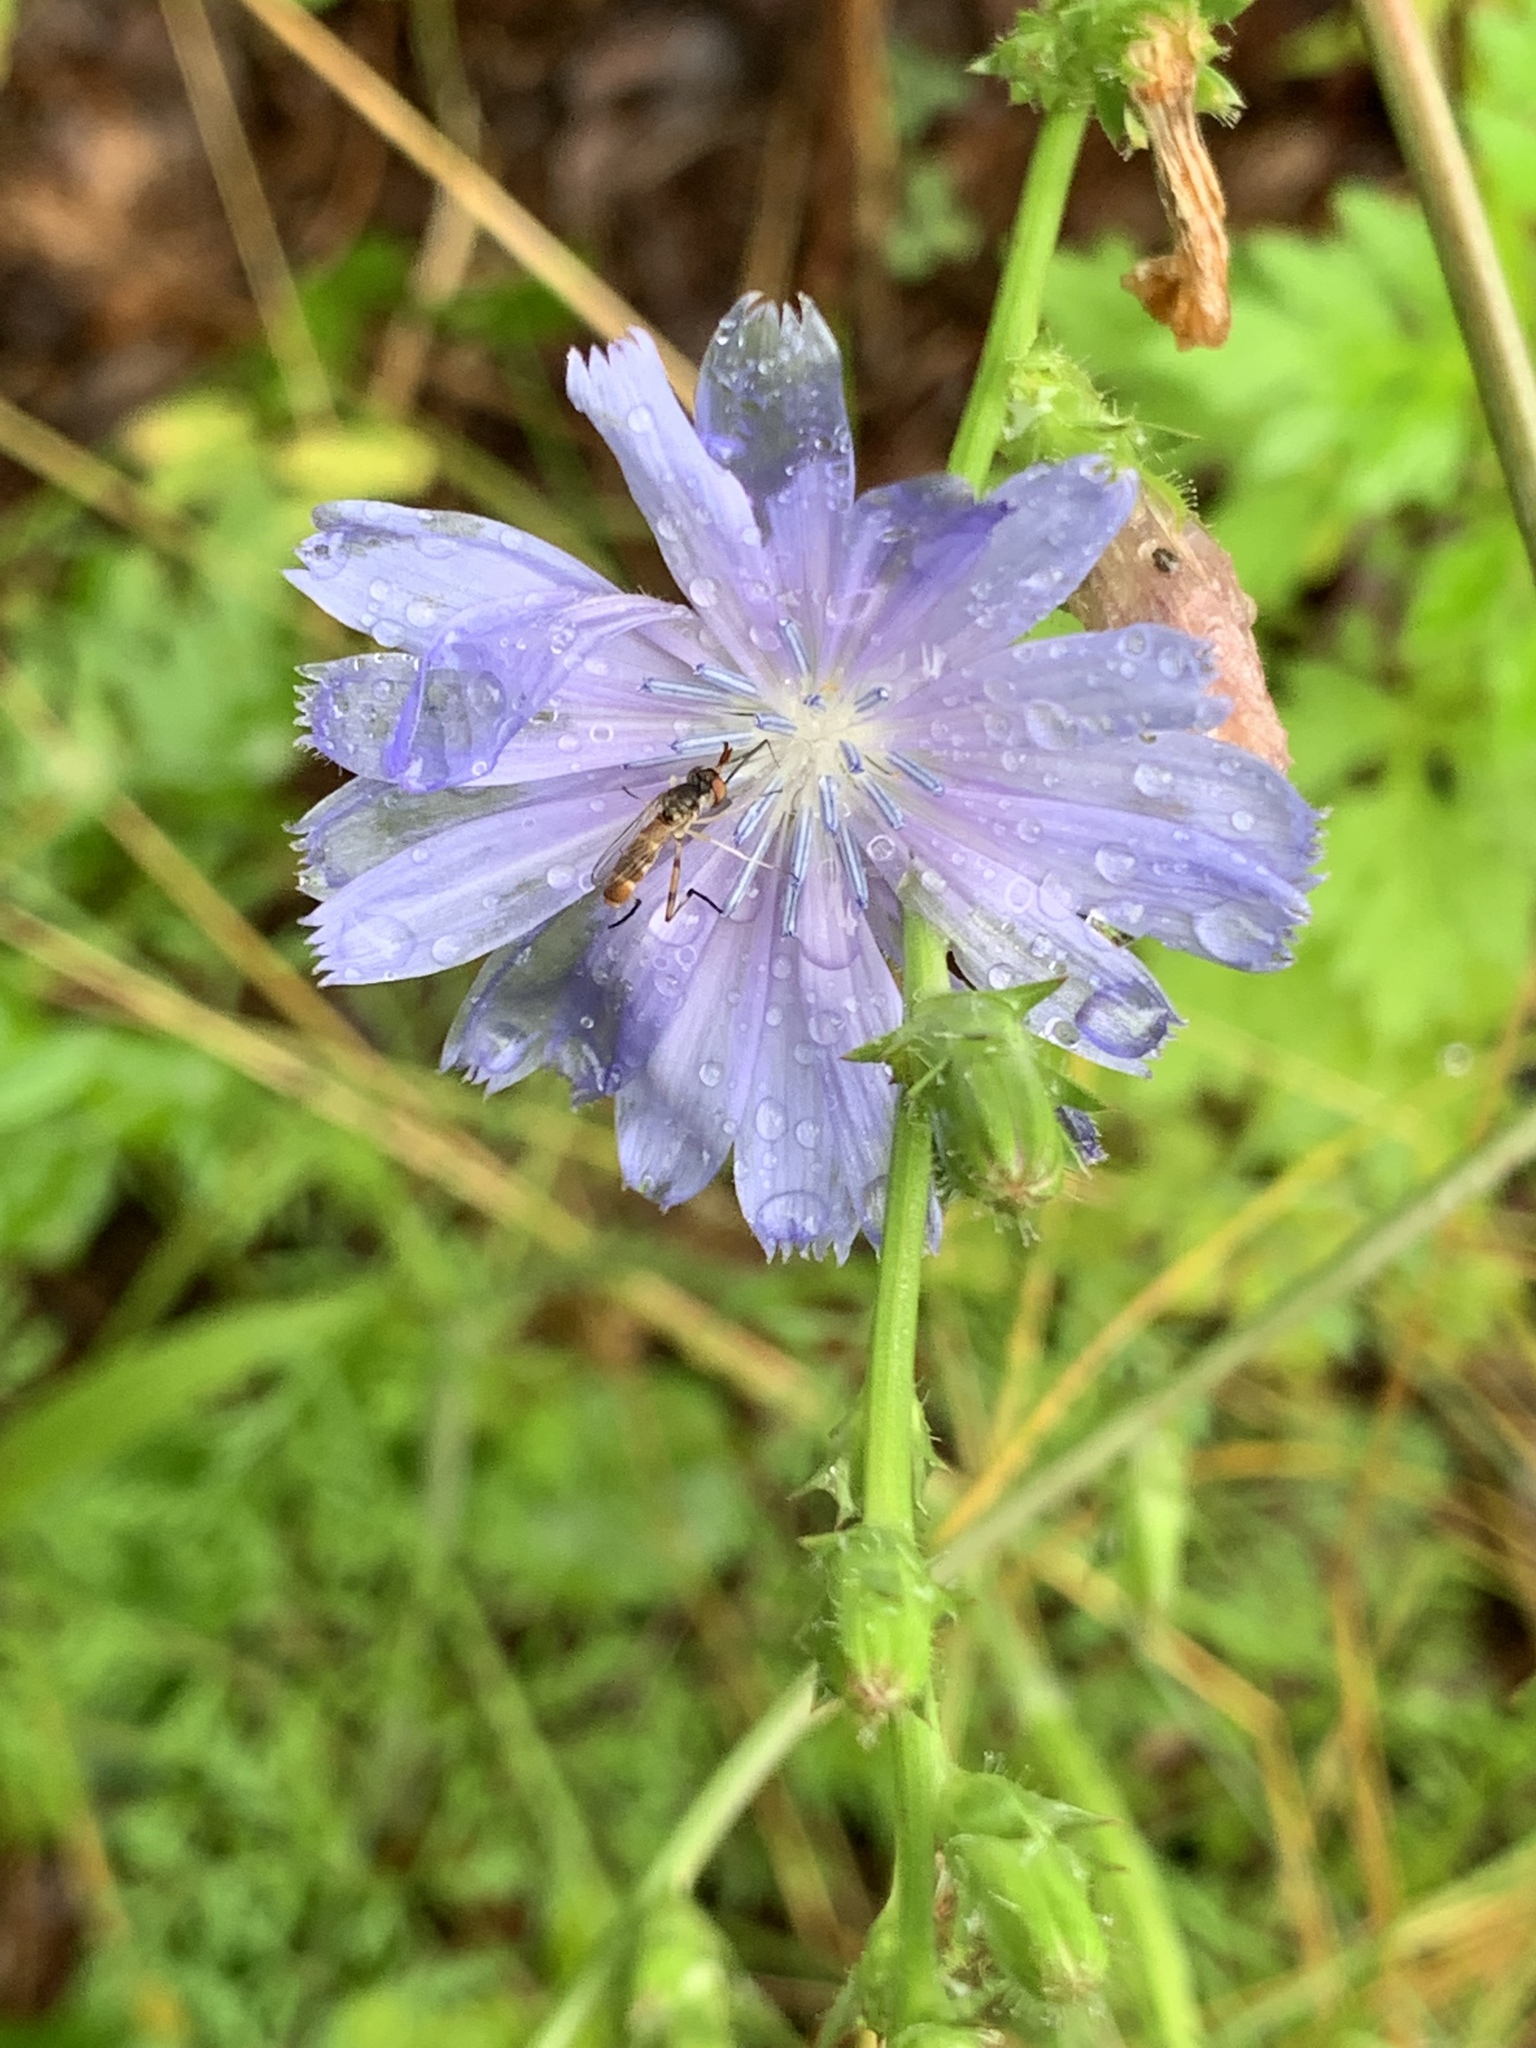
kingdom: Plantae
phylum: Tracheophyta
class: Magnoliopsida
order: Asterales
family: Asteraceae
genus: Cichorium
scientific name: Cichorium intybus
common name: Chicory
